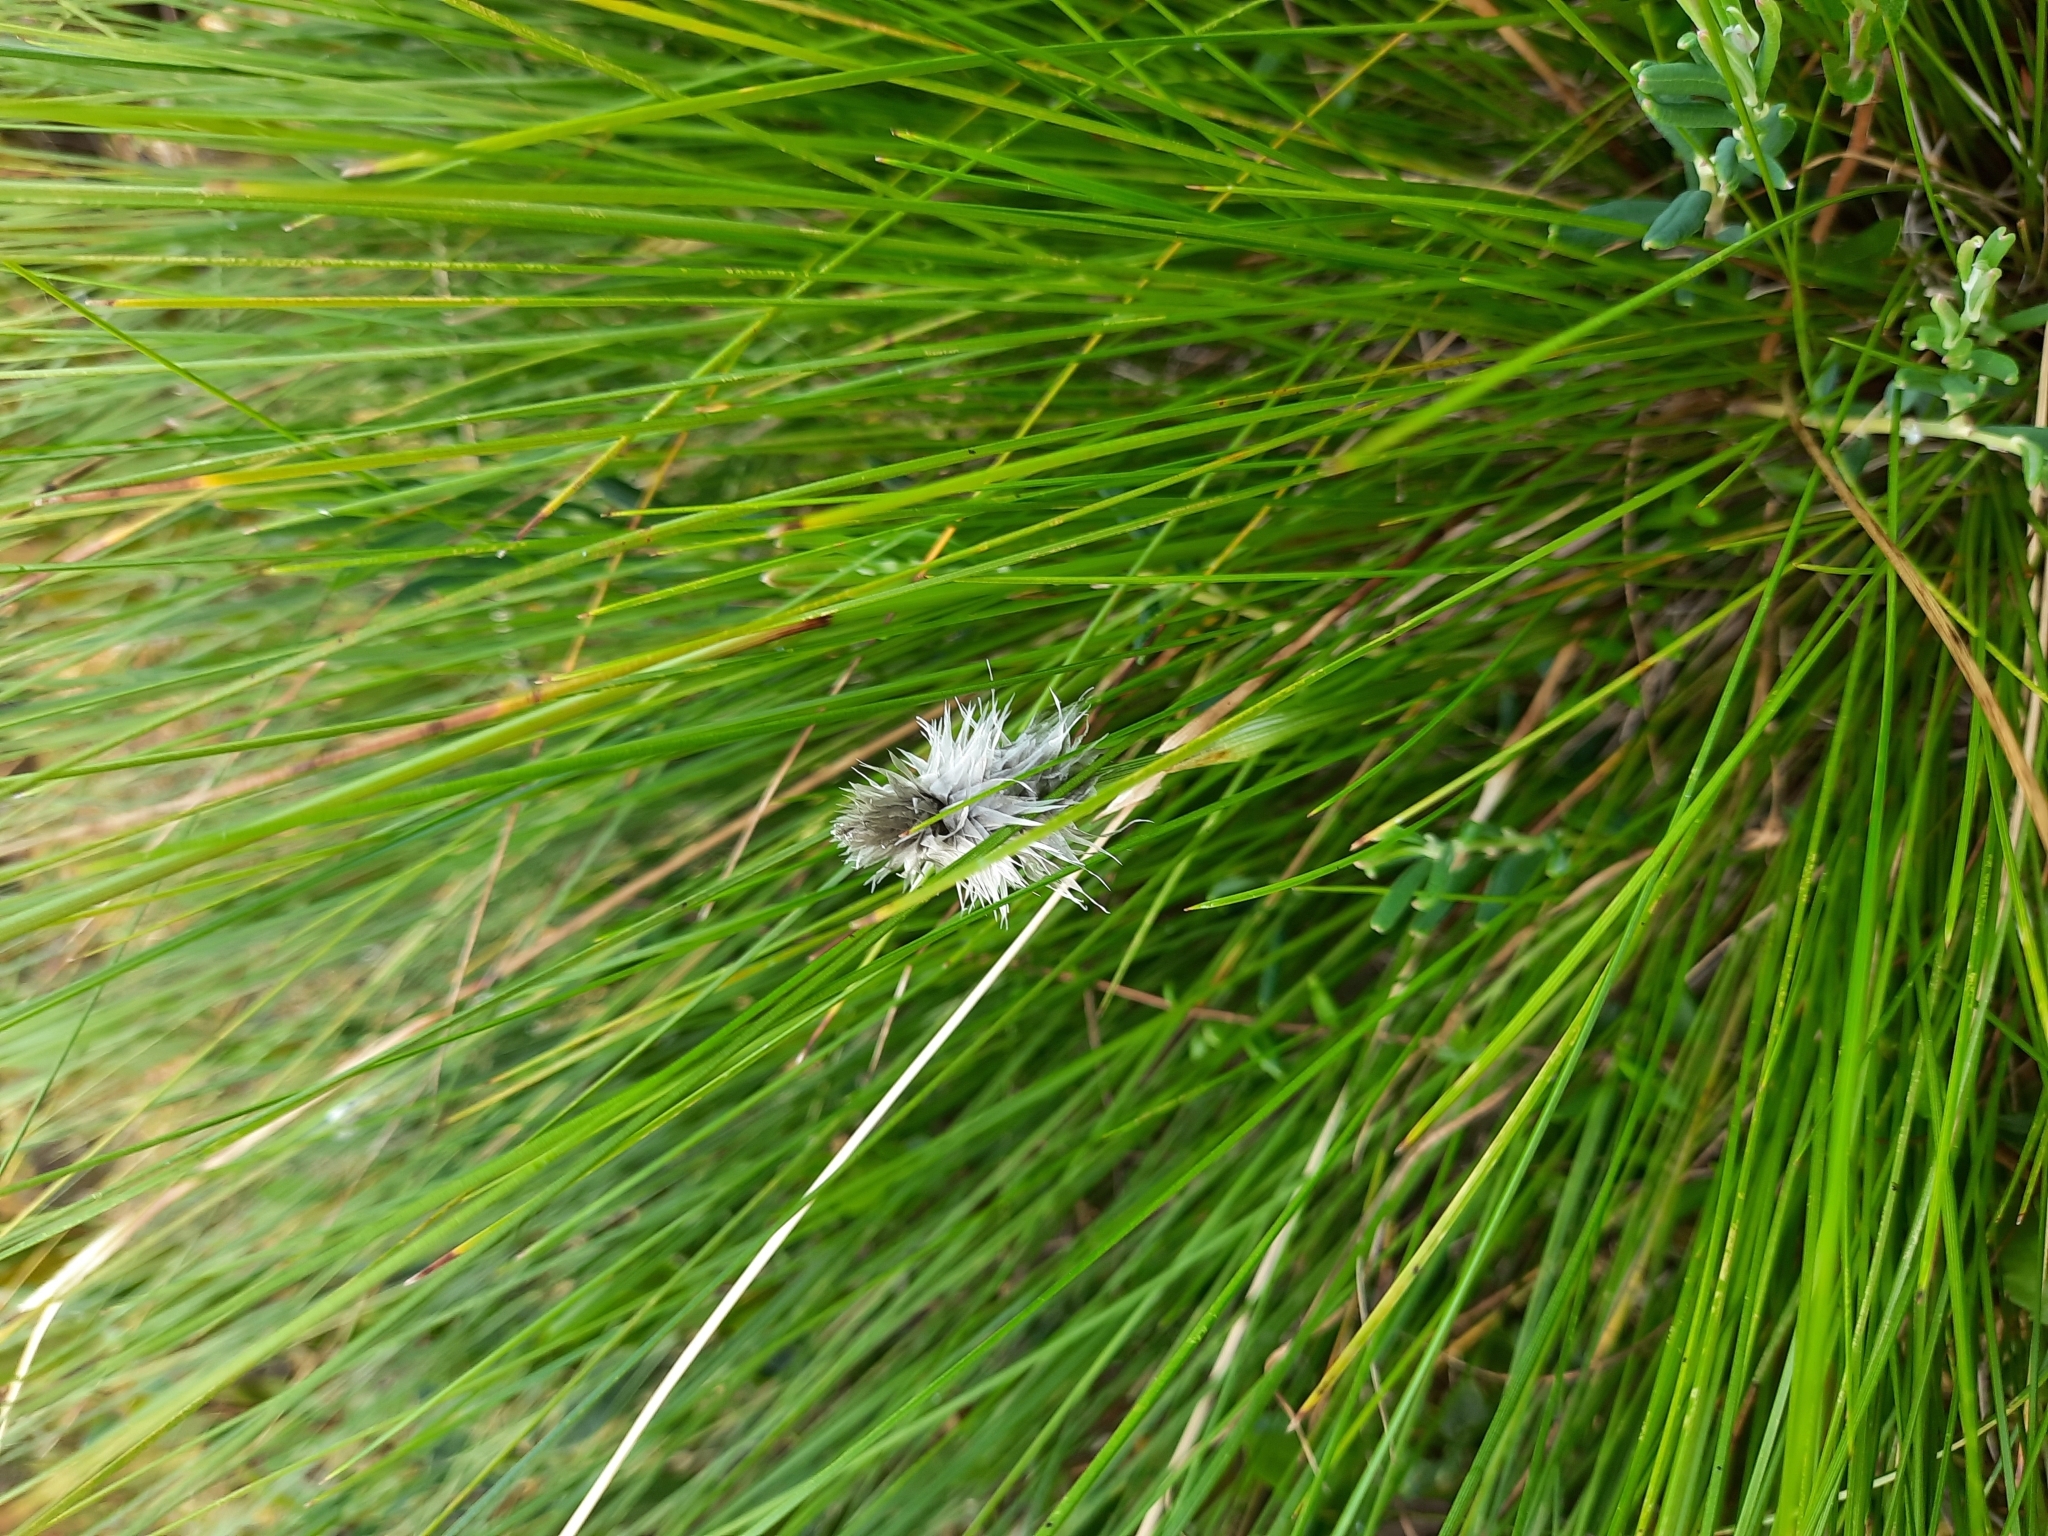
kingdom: Plantae
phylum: Tracheophyta
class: Liliopsida
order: Poales
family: Cyperaceae
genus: Eriophorum
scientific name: Eriophorum vaginatum
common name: Hare's-tail cottongrass
